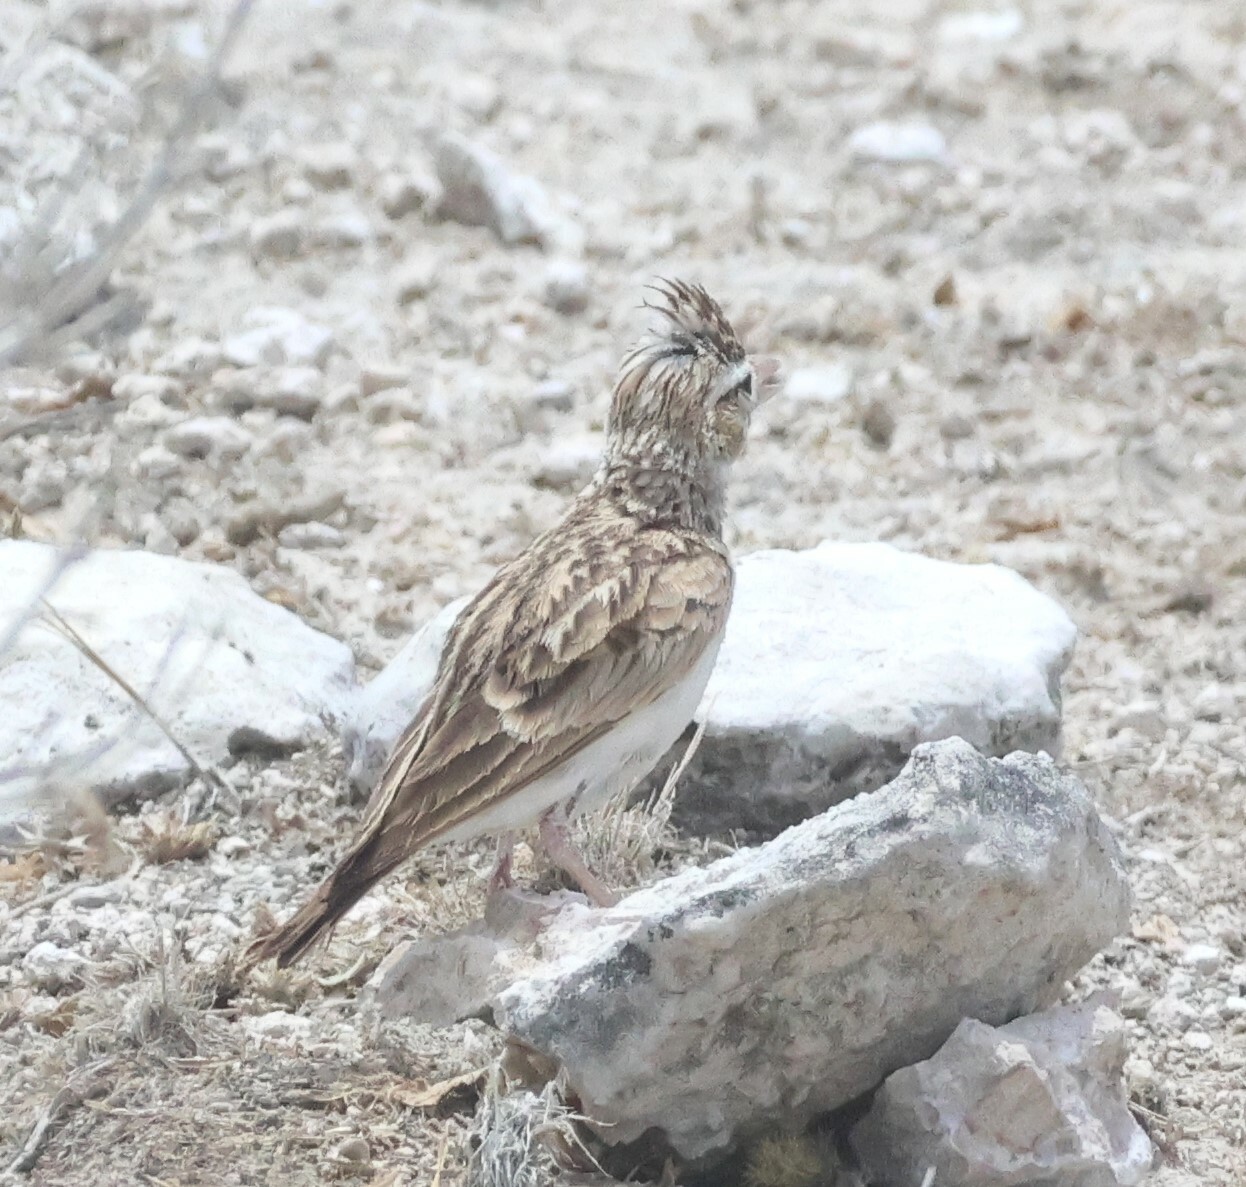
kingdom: Animalia
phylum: Chordata
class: Aves
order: Passeriformes
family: Alaudidae
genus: Spizocorys
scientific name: Spizocorys starki
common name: Stark's lark
